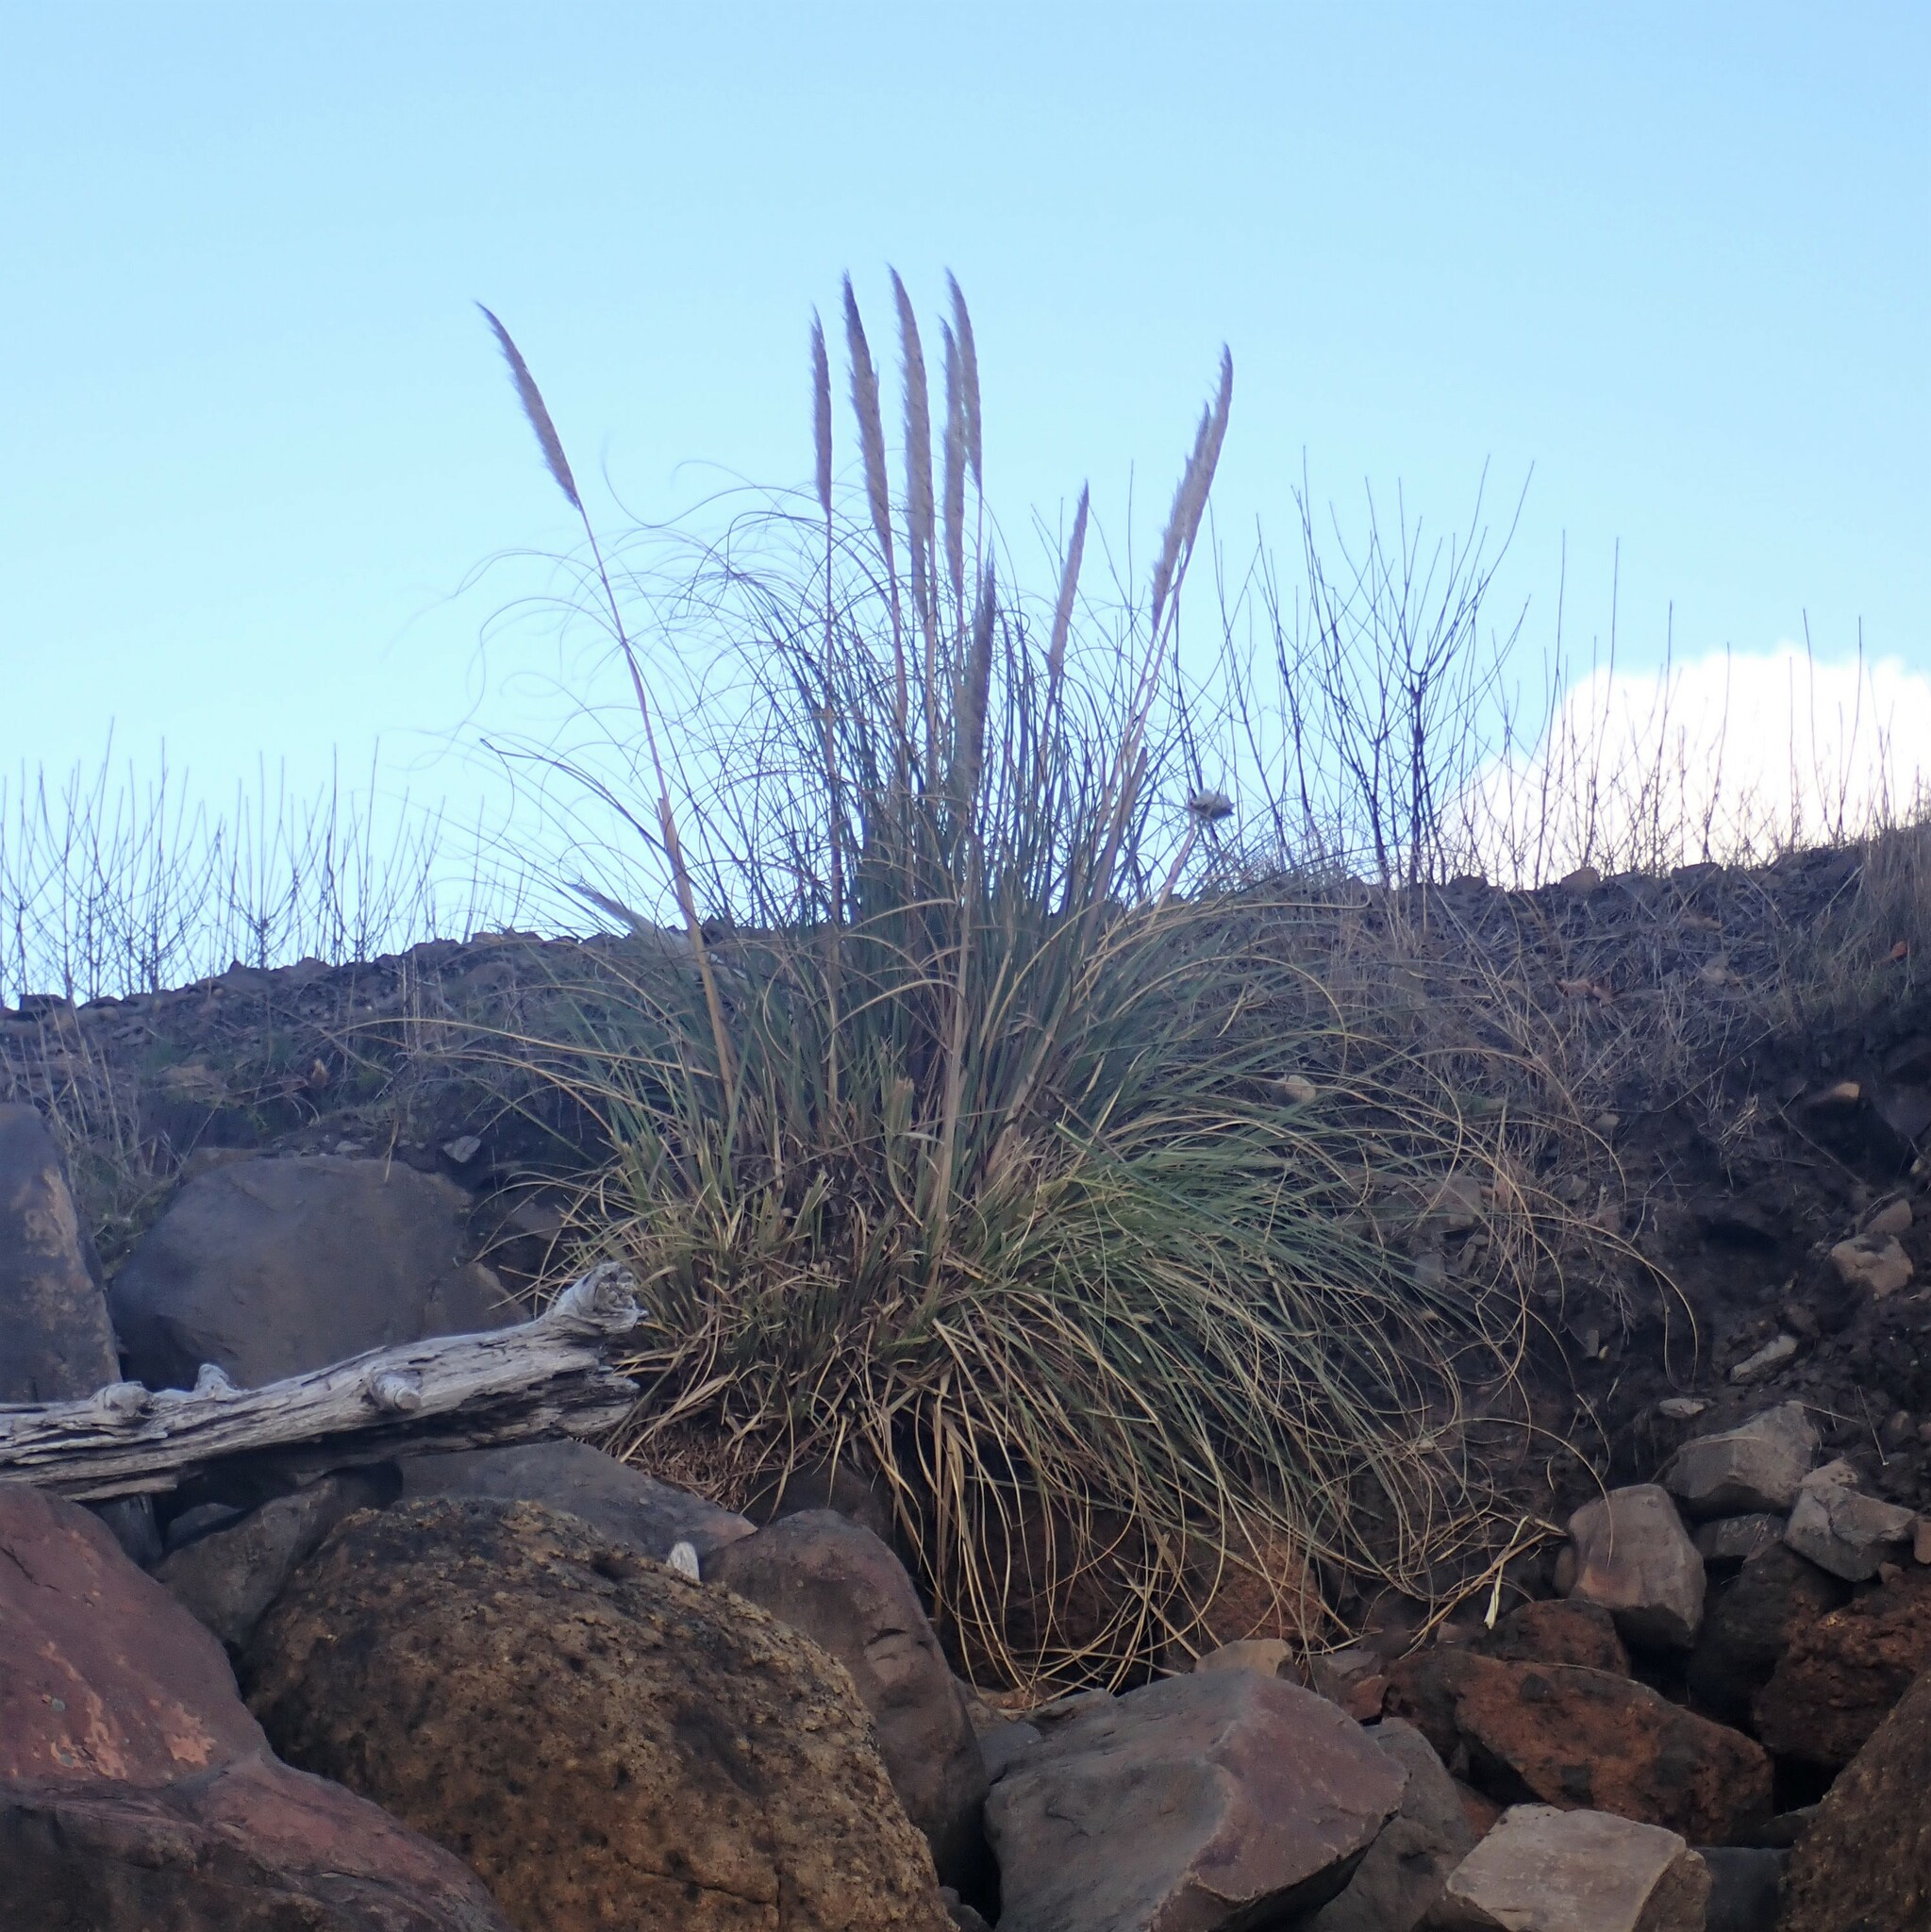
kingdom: Plantae
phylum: Tracheophyta
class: Liliopsida
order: Poales
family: Poaceae
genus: Cortaderia
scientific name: Cortaderia selloana
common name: Uruguayan pampas grass
